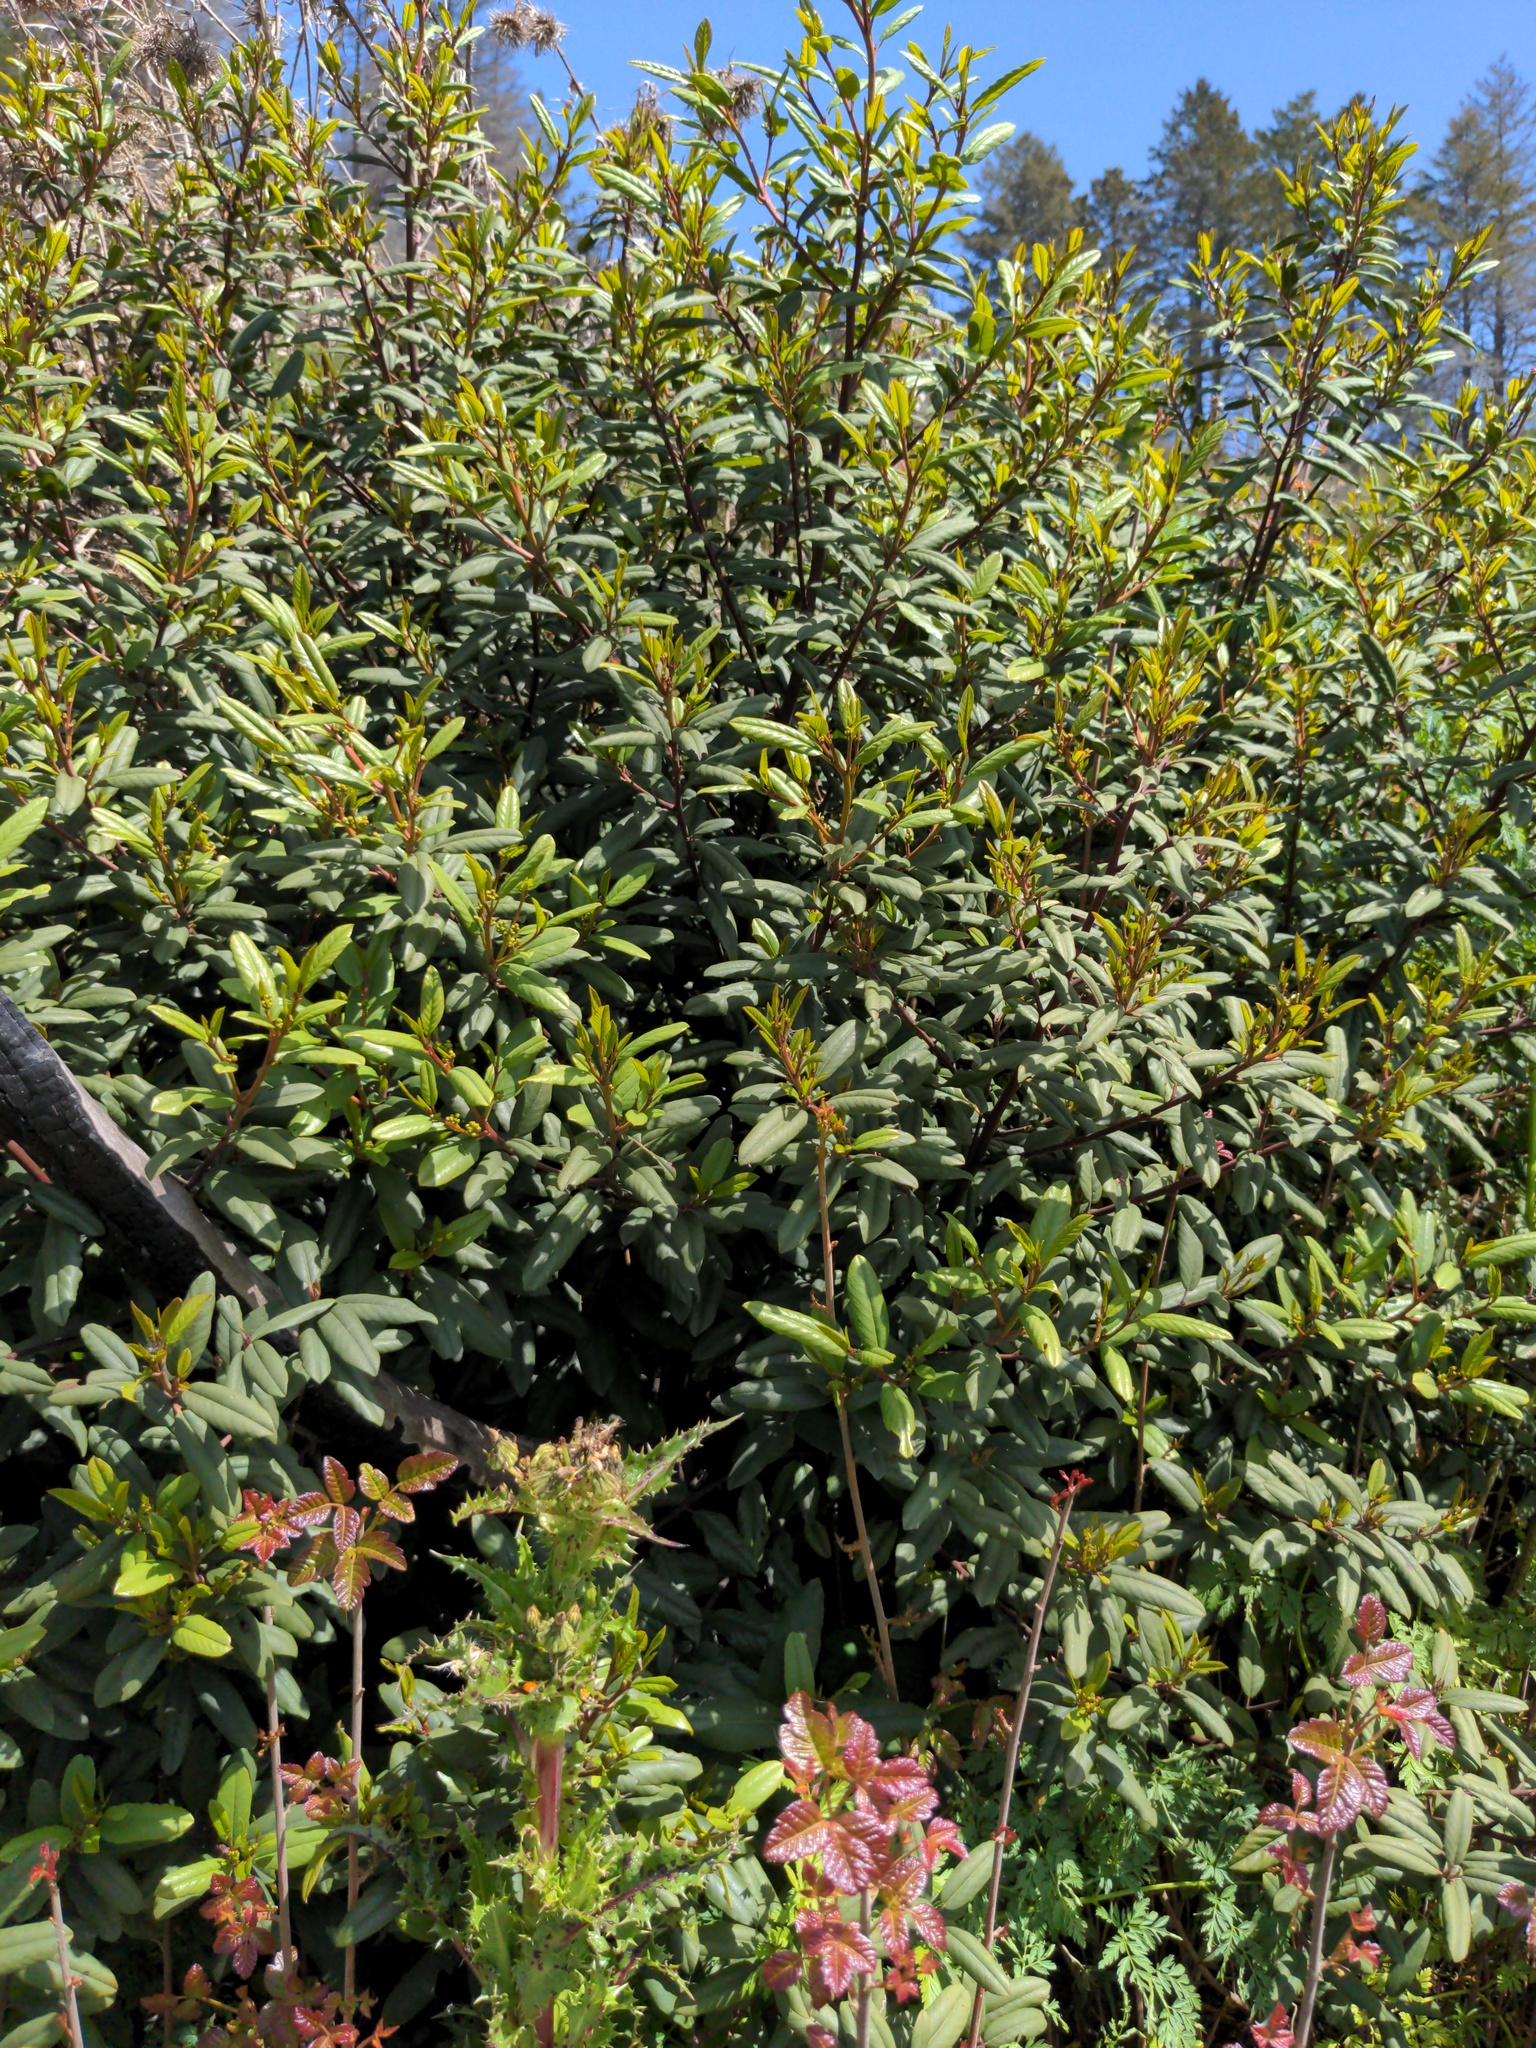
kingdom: Plantae
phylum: Tracheophyta
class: Magnoliopsida
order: Rosales
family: Rhamnaceae
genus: Frangula
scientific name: Frangula californica
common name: California buckthorn
